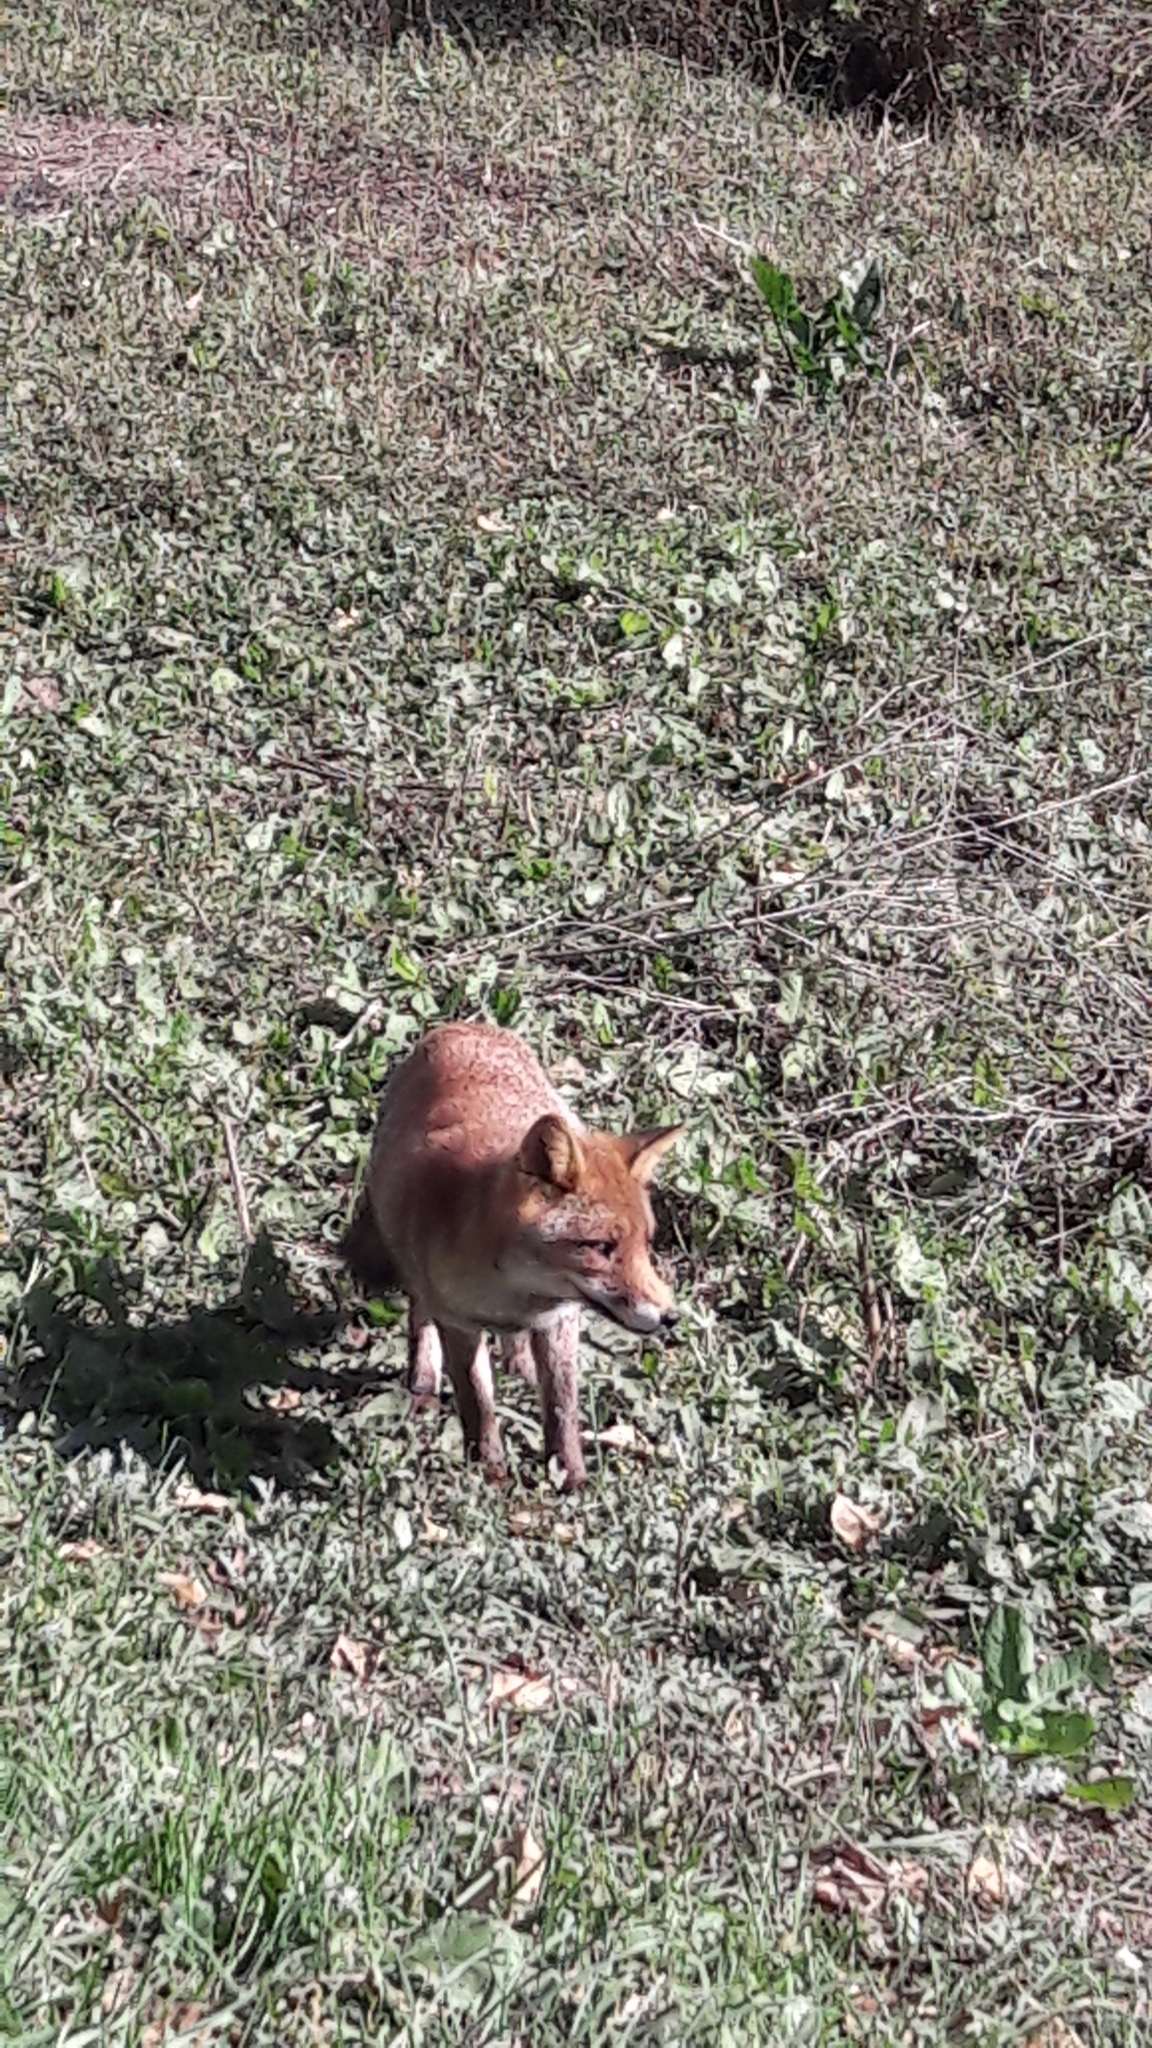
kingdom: Animalia
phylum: Chordata
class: Mammalia
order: Carnivora
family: Canidae
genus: Vulpes
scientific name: Vulpes vulpes
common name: Red fox
